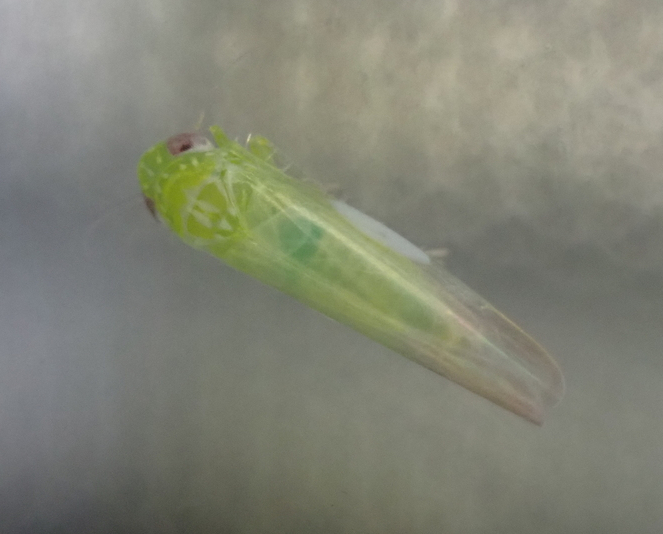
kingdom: Animalia
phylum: Arthropoda
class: Insecta
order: Hemiptera
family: Cicadellidae
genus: Empoasca
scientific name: Empoasca fabae
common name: Potato leafhopper
